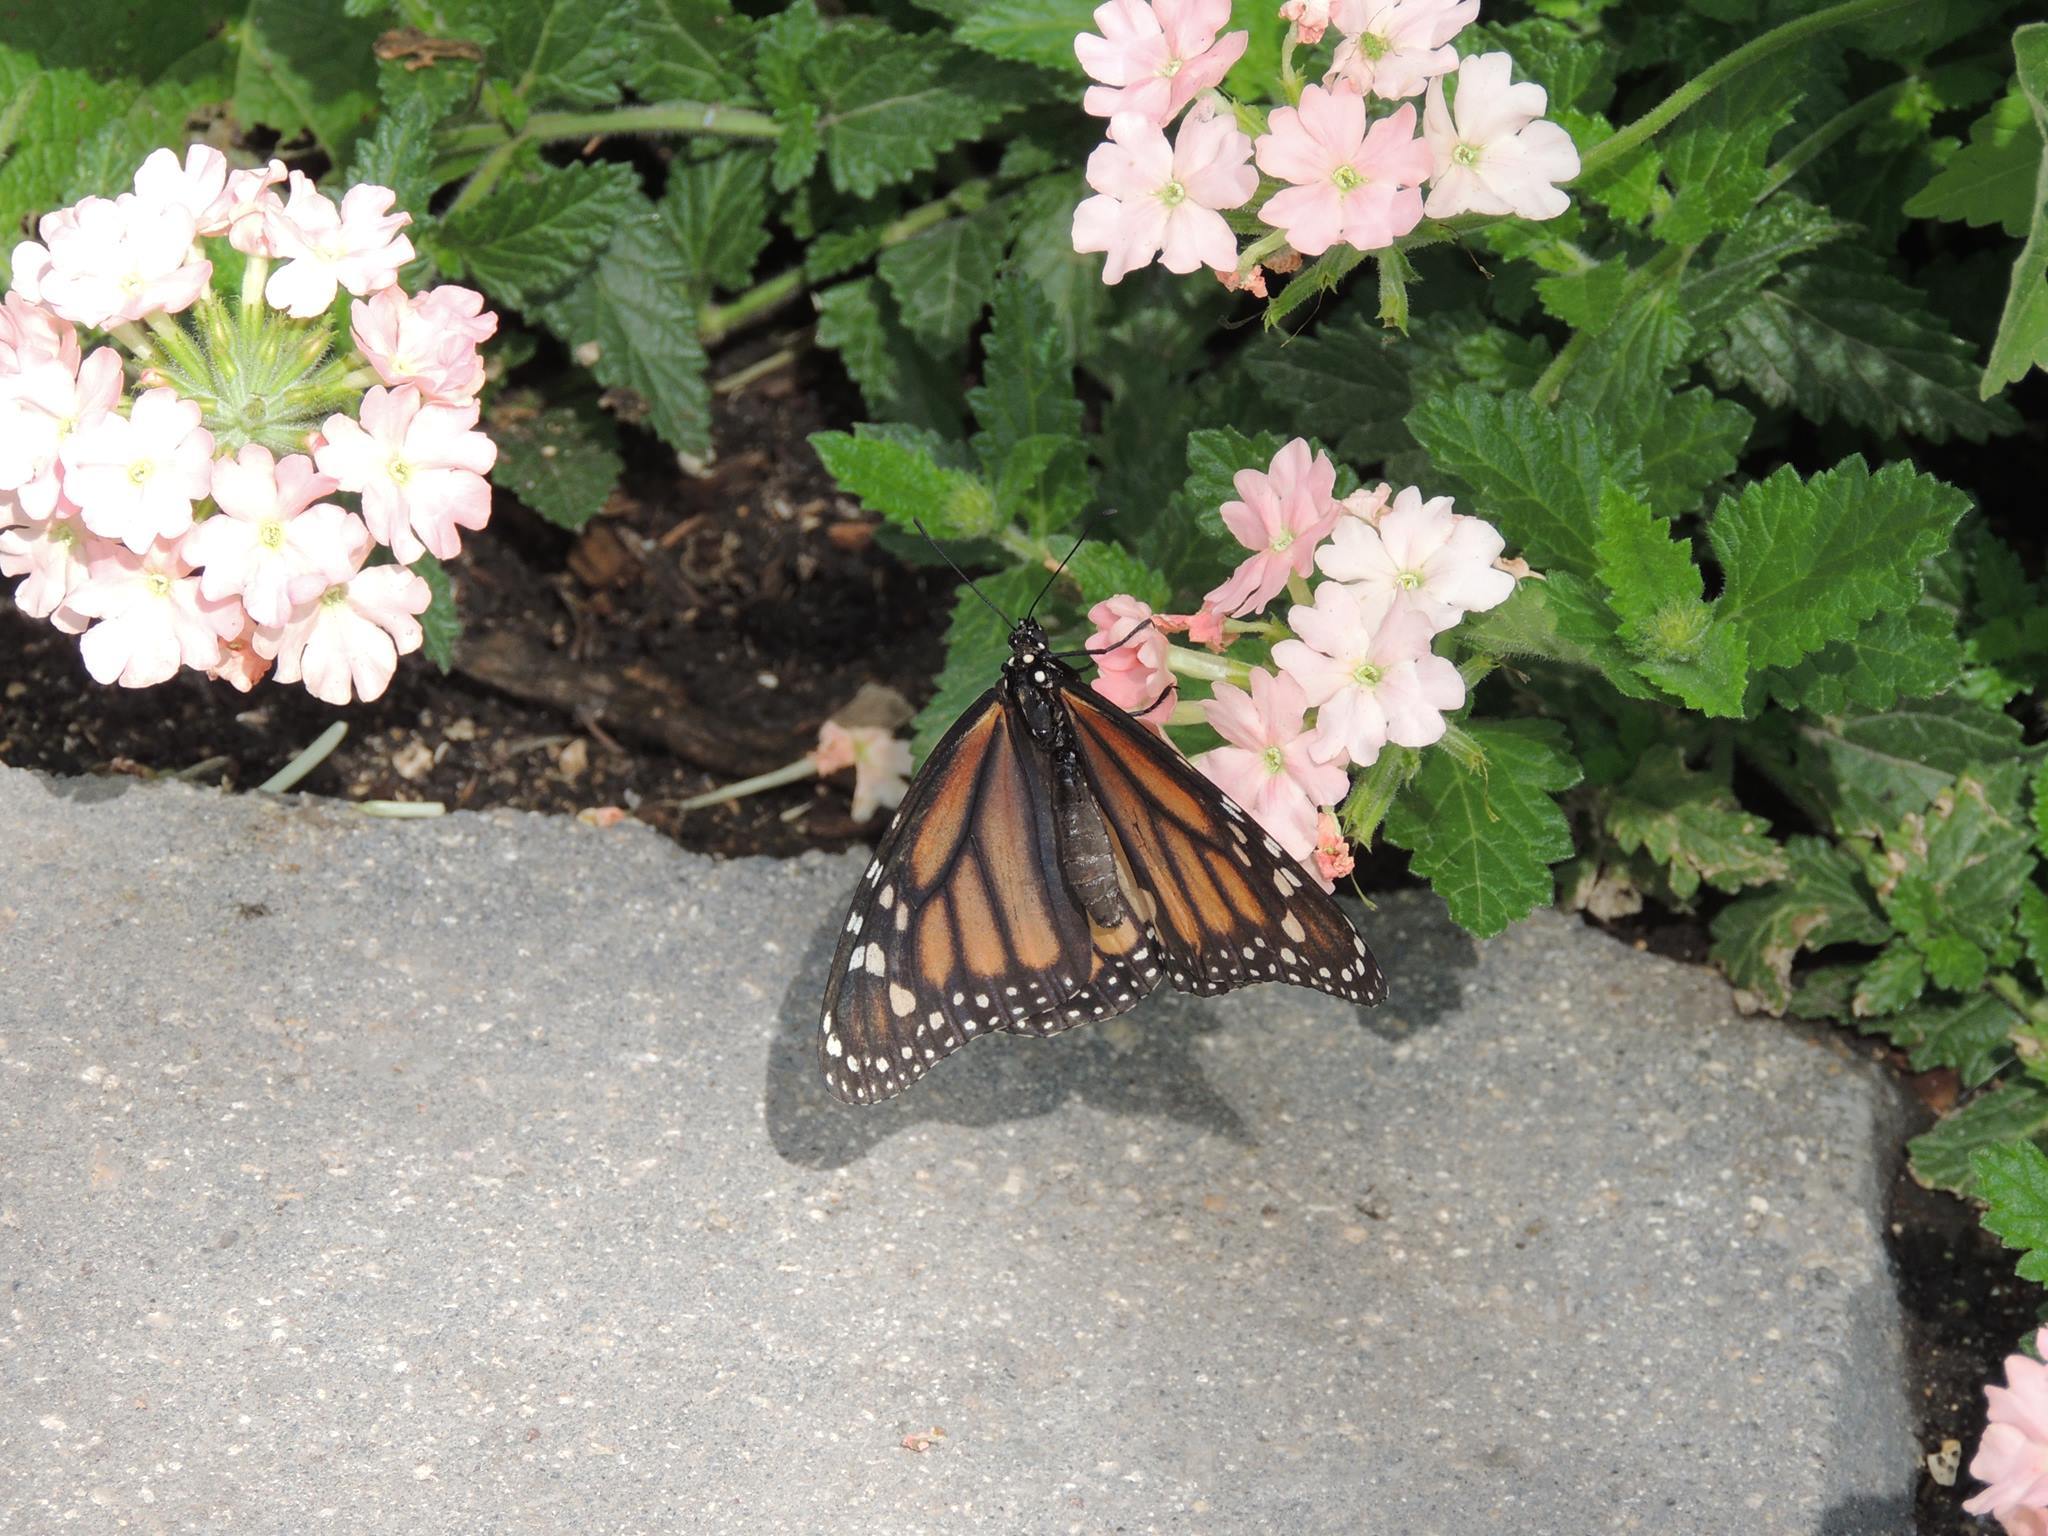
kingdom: Animalia
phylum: Arthropoda
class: Insecta
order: Lepidoptera
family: Nymphalidae
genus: Danaus
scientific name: Danaus plexippus
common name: Monarch
